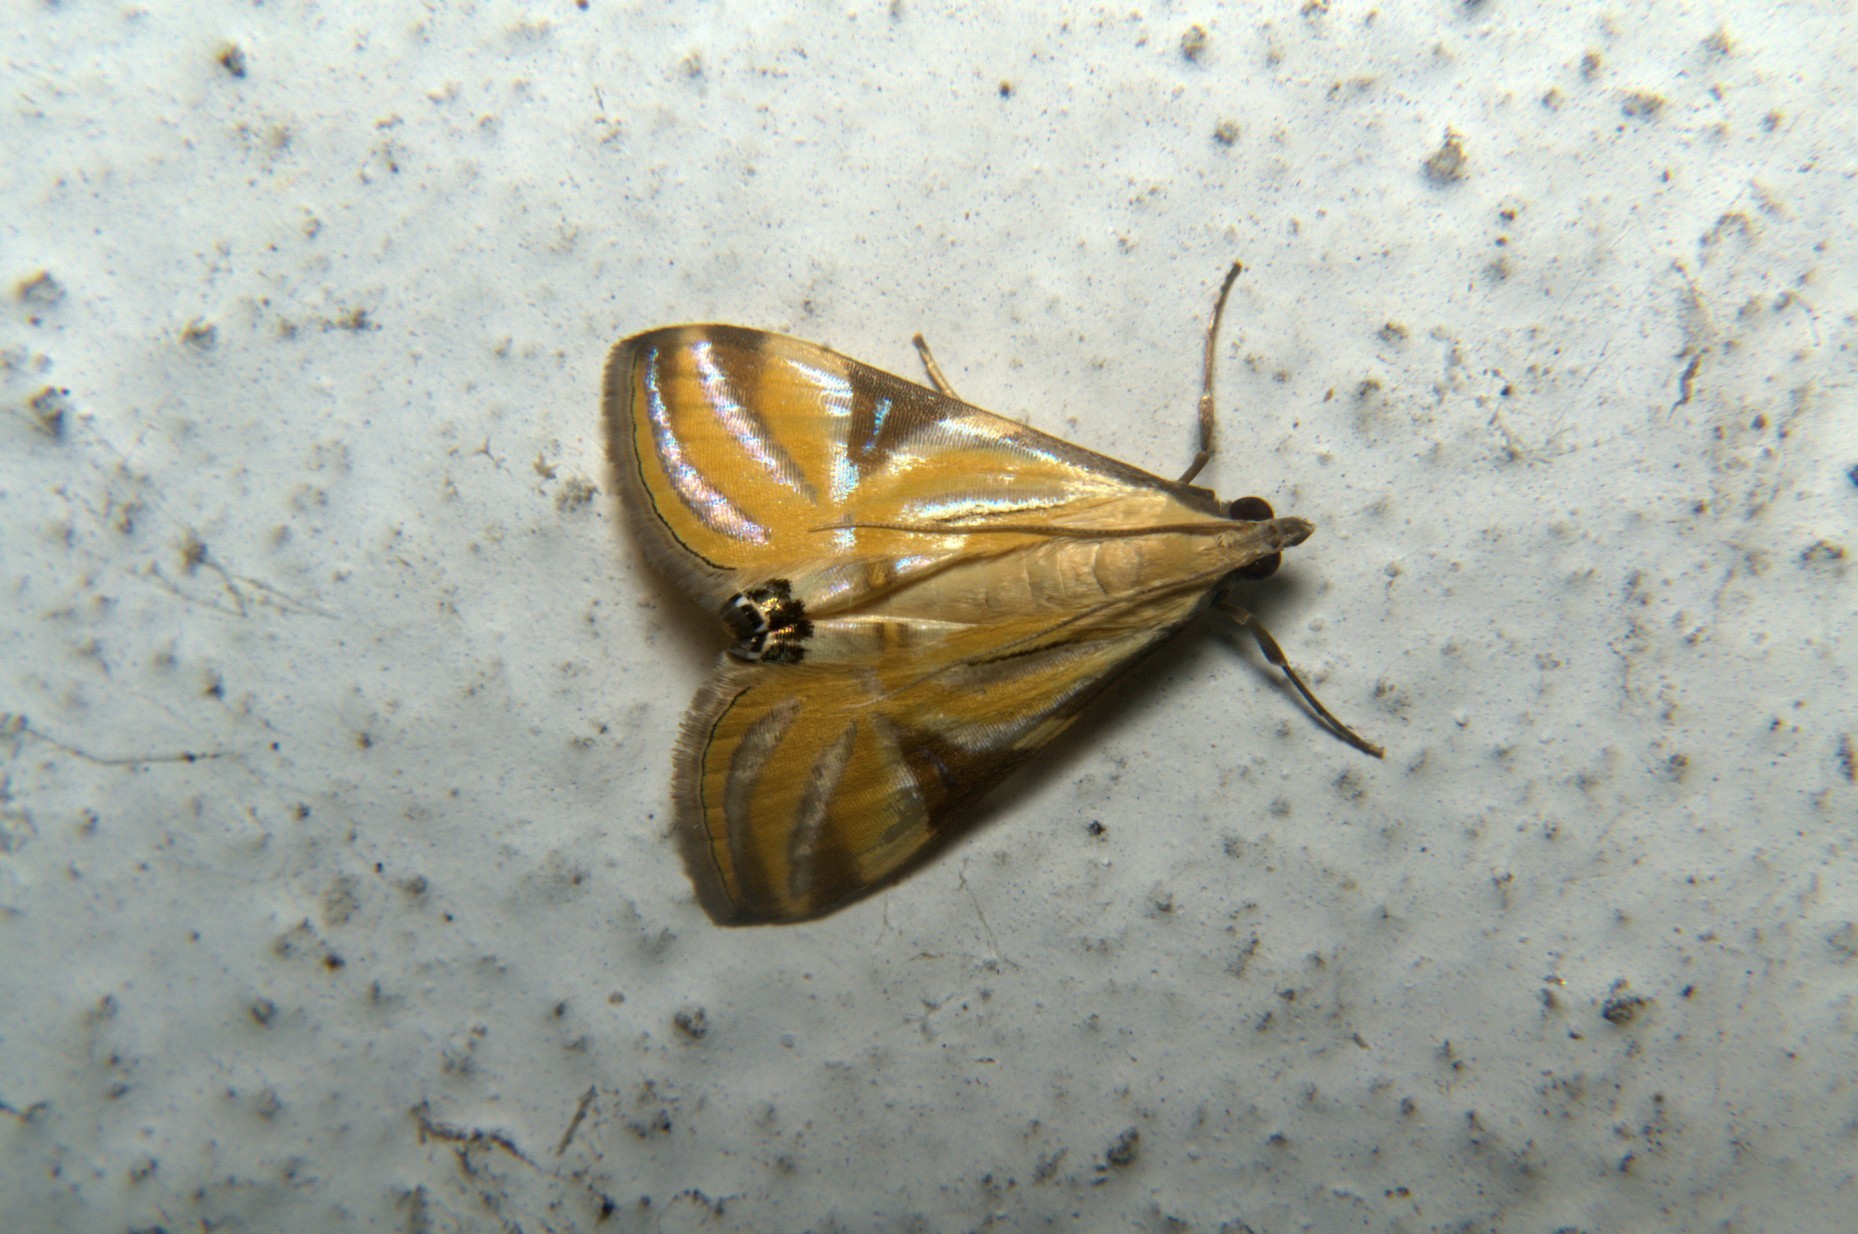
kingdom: Animalia
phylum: Arthropoda
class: Insecta
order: Lepidoptera
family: Crambidae
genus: Talanga
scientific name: Talanga sexpunctalis
